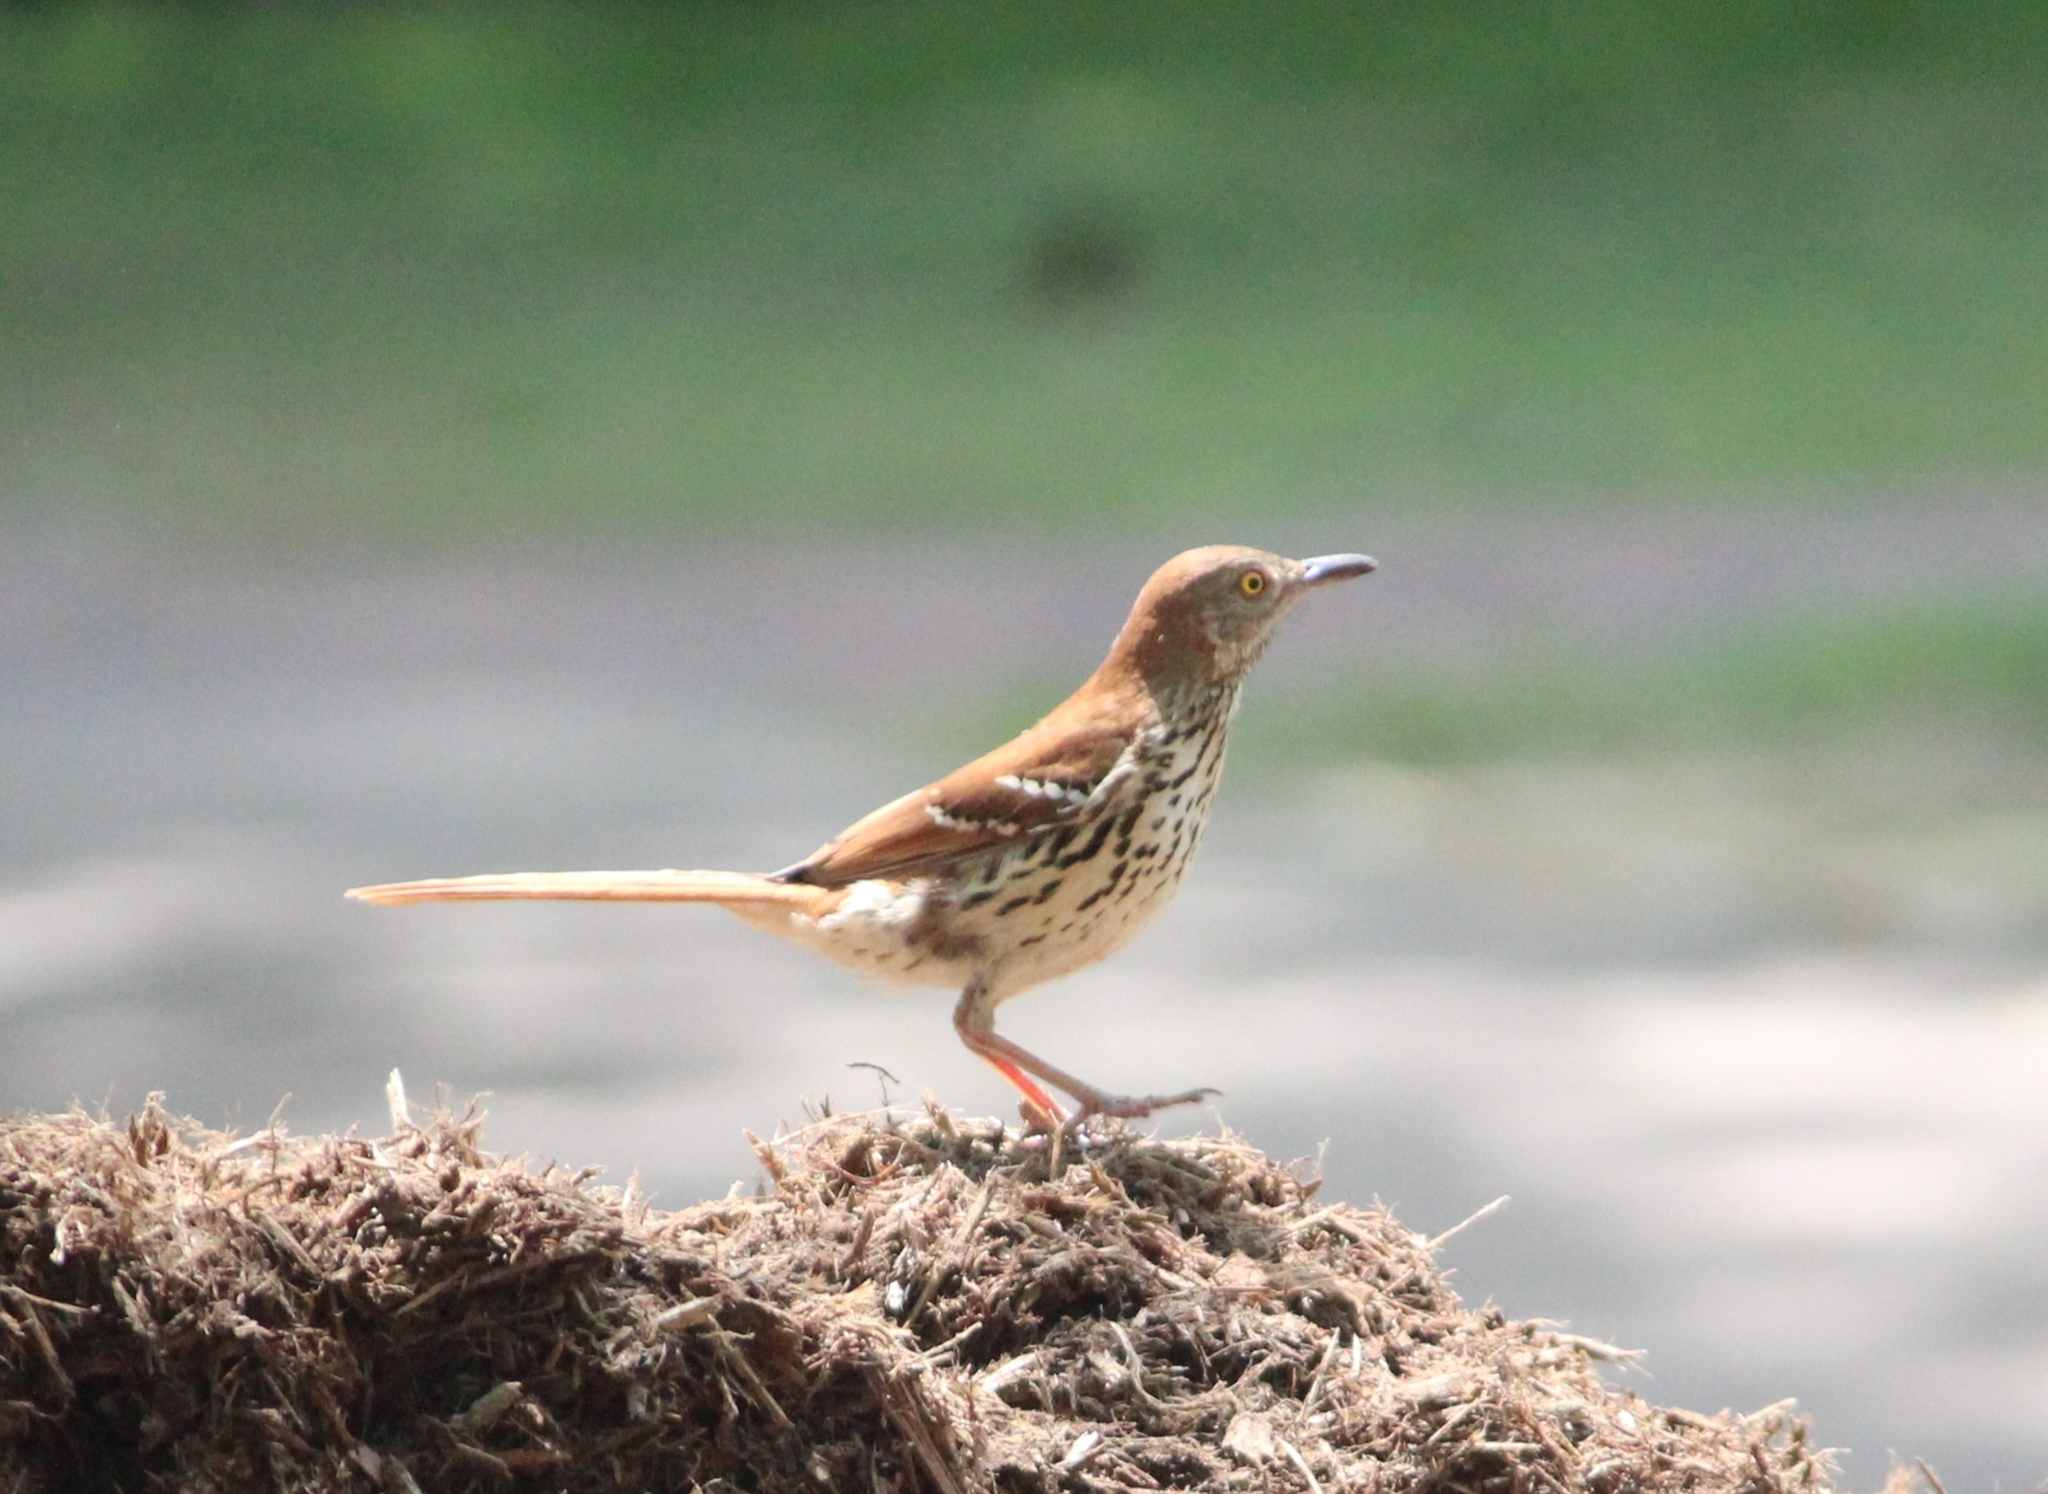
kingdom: Animalia
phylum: Chordata
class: Aves
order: Passeriformes
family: Mimidae
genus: Toxostoma
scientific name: Toxostoma rufum
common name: Brown thrasher
